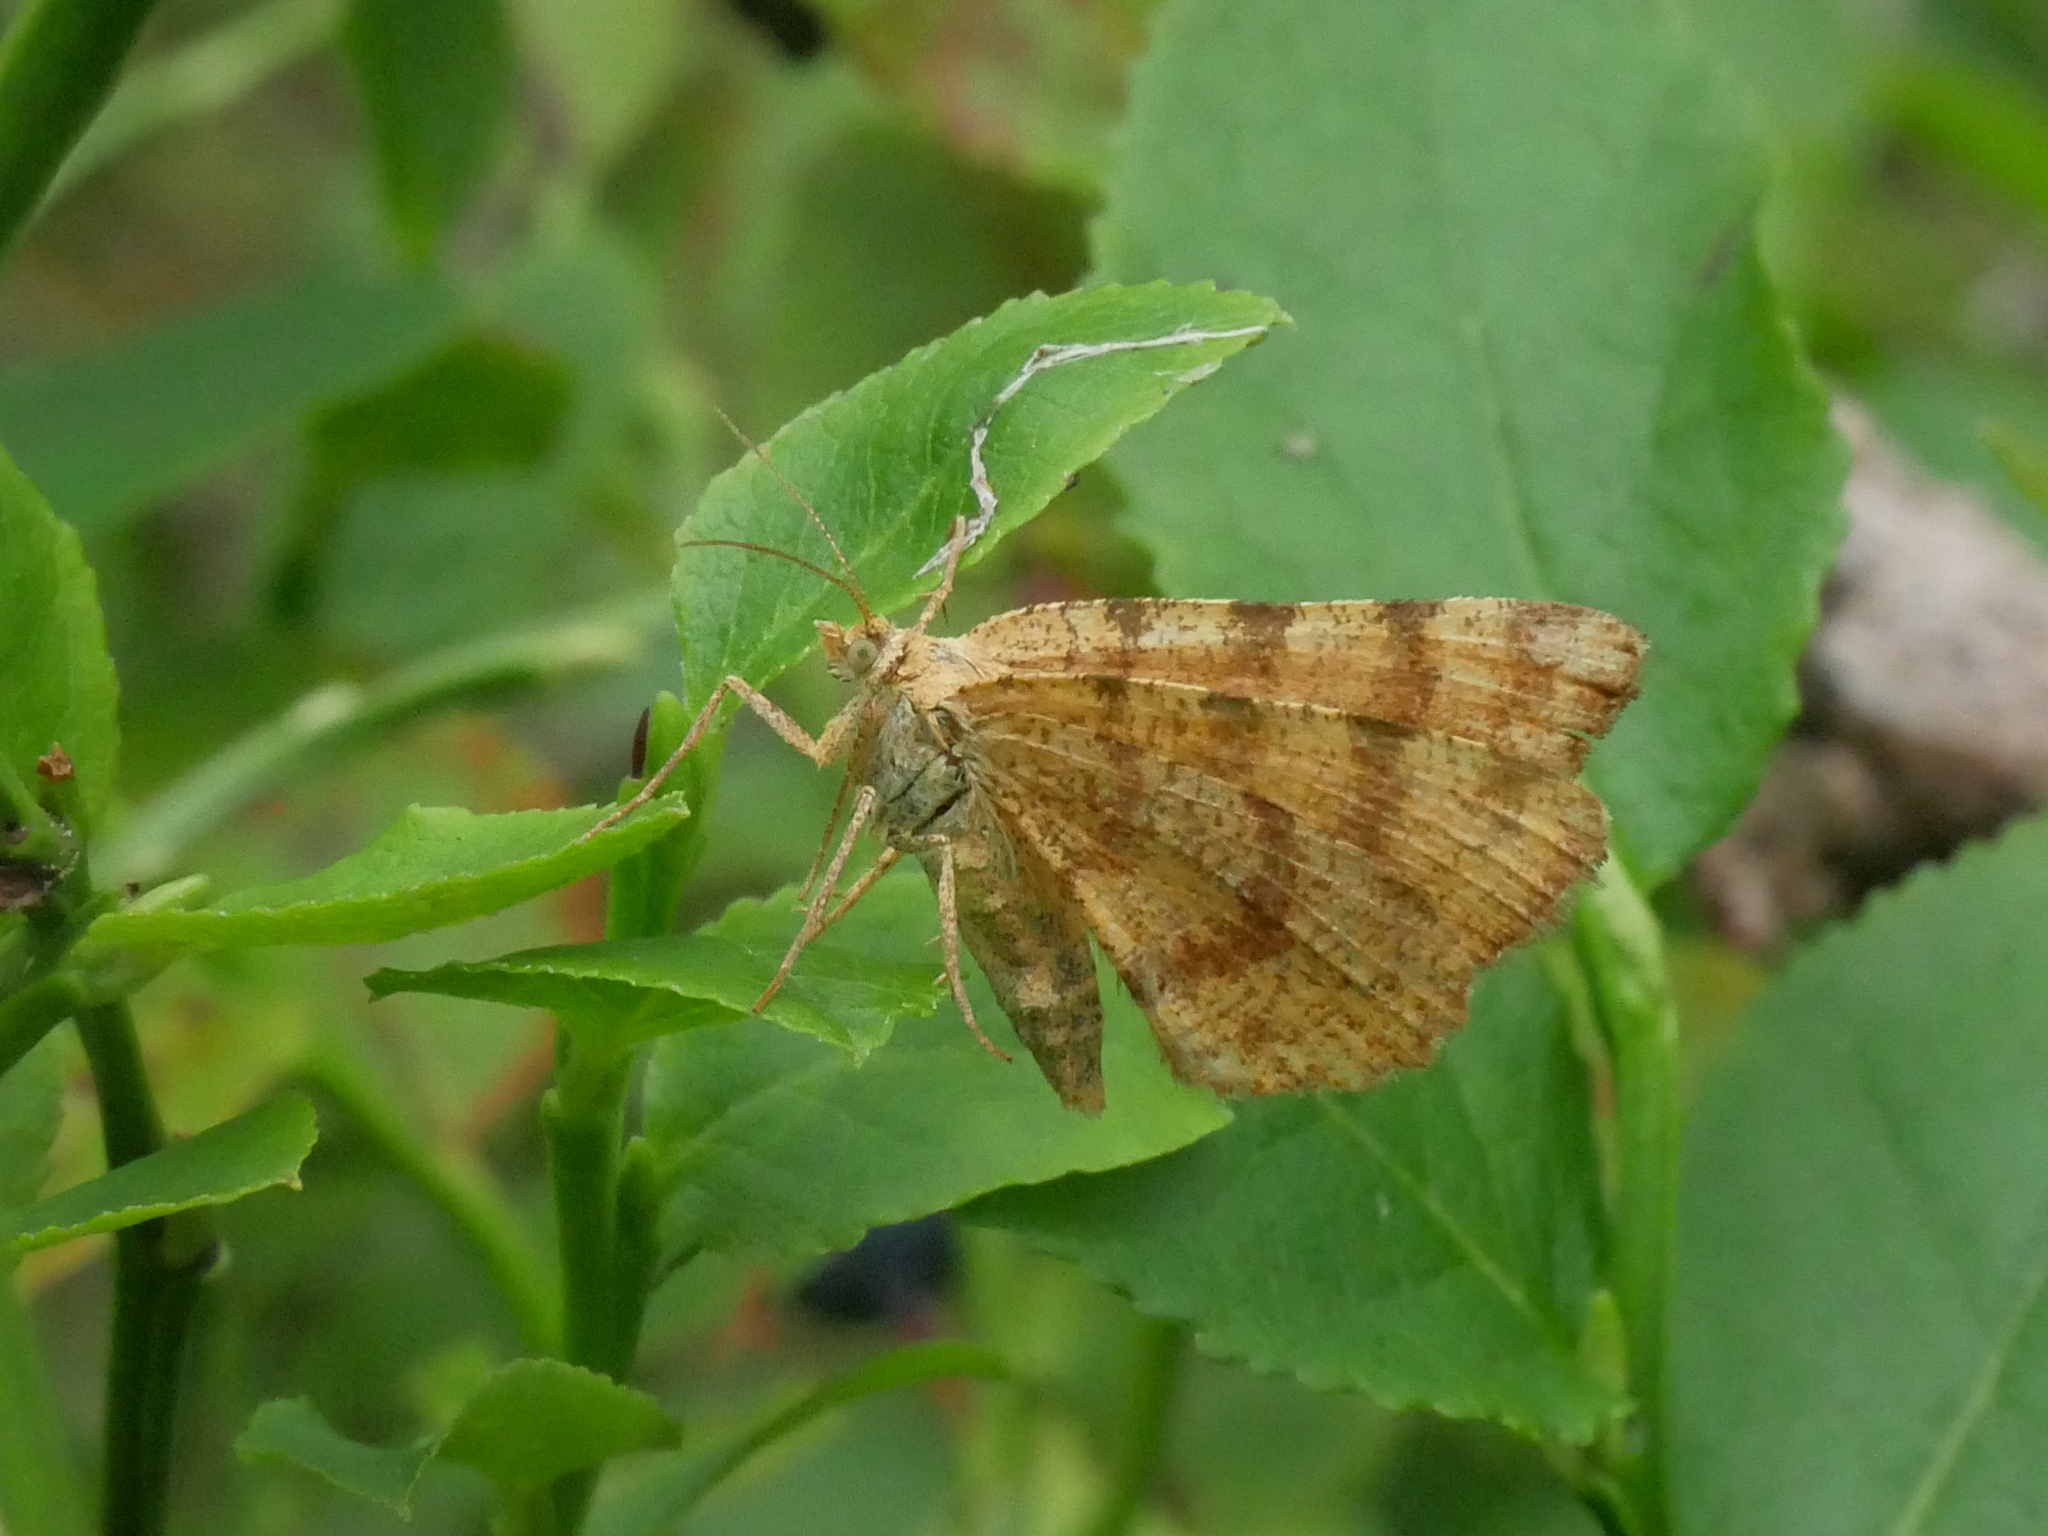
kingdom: Animalia
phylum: Arthropoda
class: Insecta
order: Lepidoptera
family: Geometridae
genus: Macaria
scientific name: Macaria brunneata
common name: Rannoch looper
